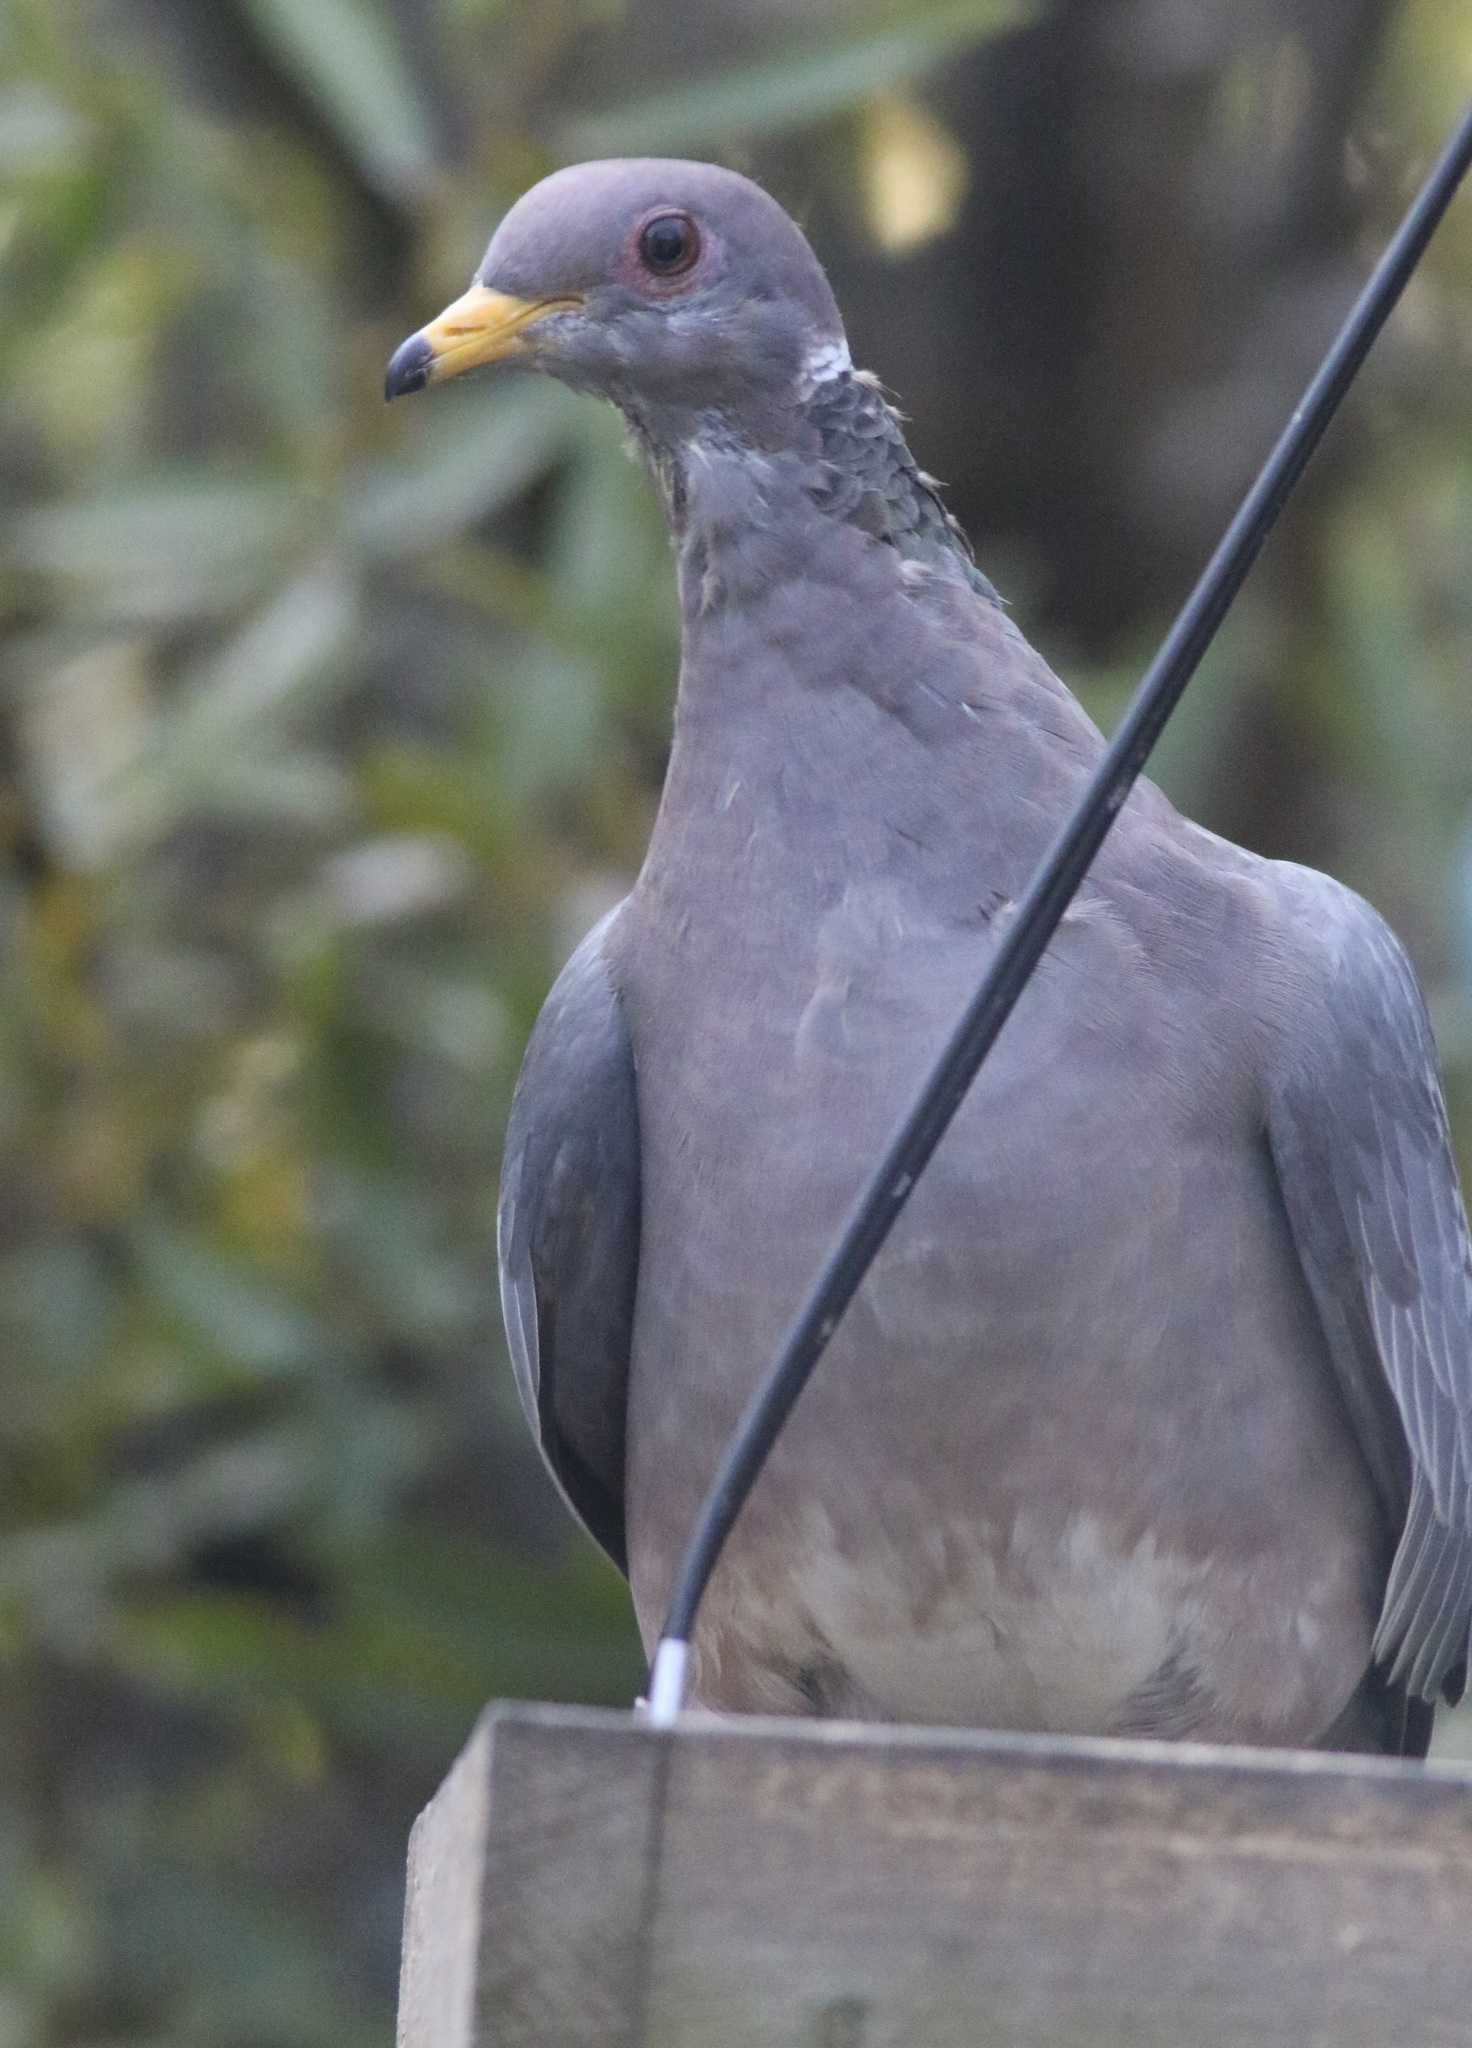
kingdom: Animalia
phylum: Chordata
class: Aves
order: Columbiformes
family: Columbidae
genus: Patagioenas
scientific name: Patagioenas fasciata
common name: Band-tailed pigeon
